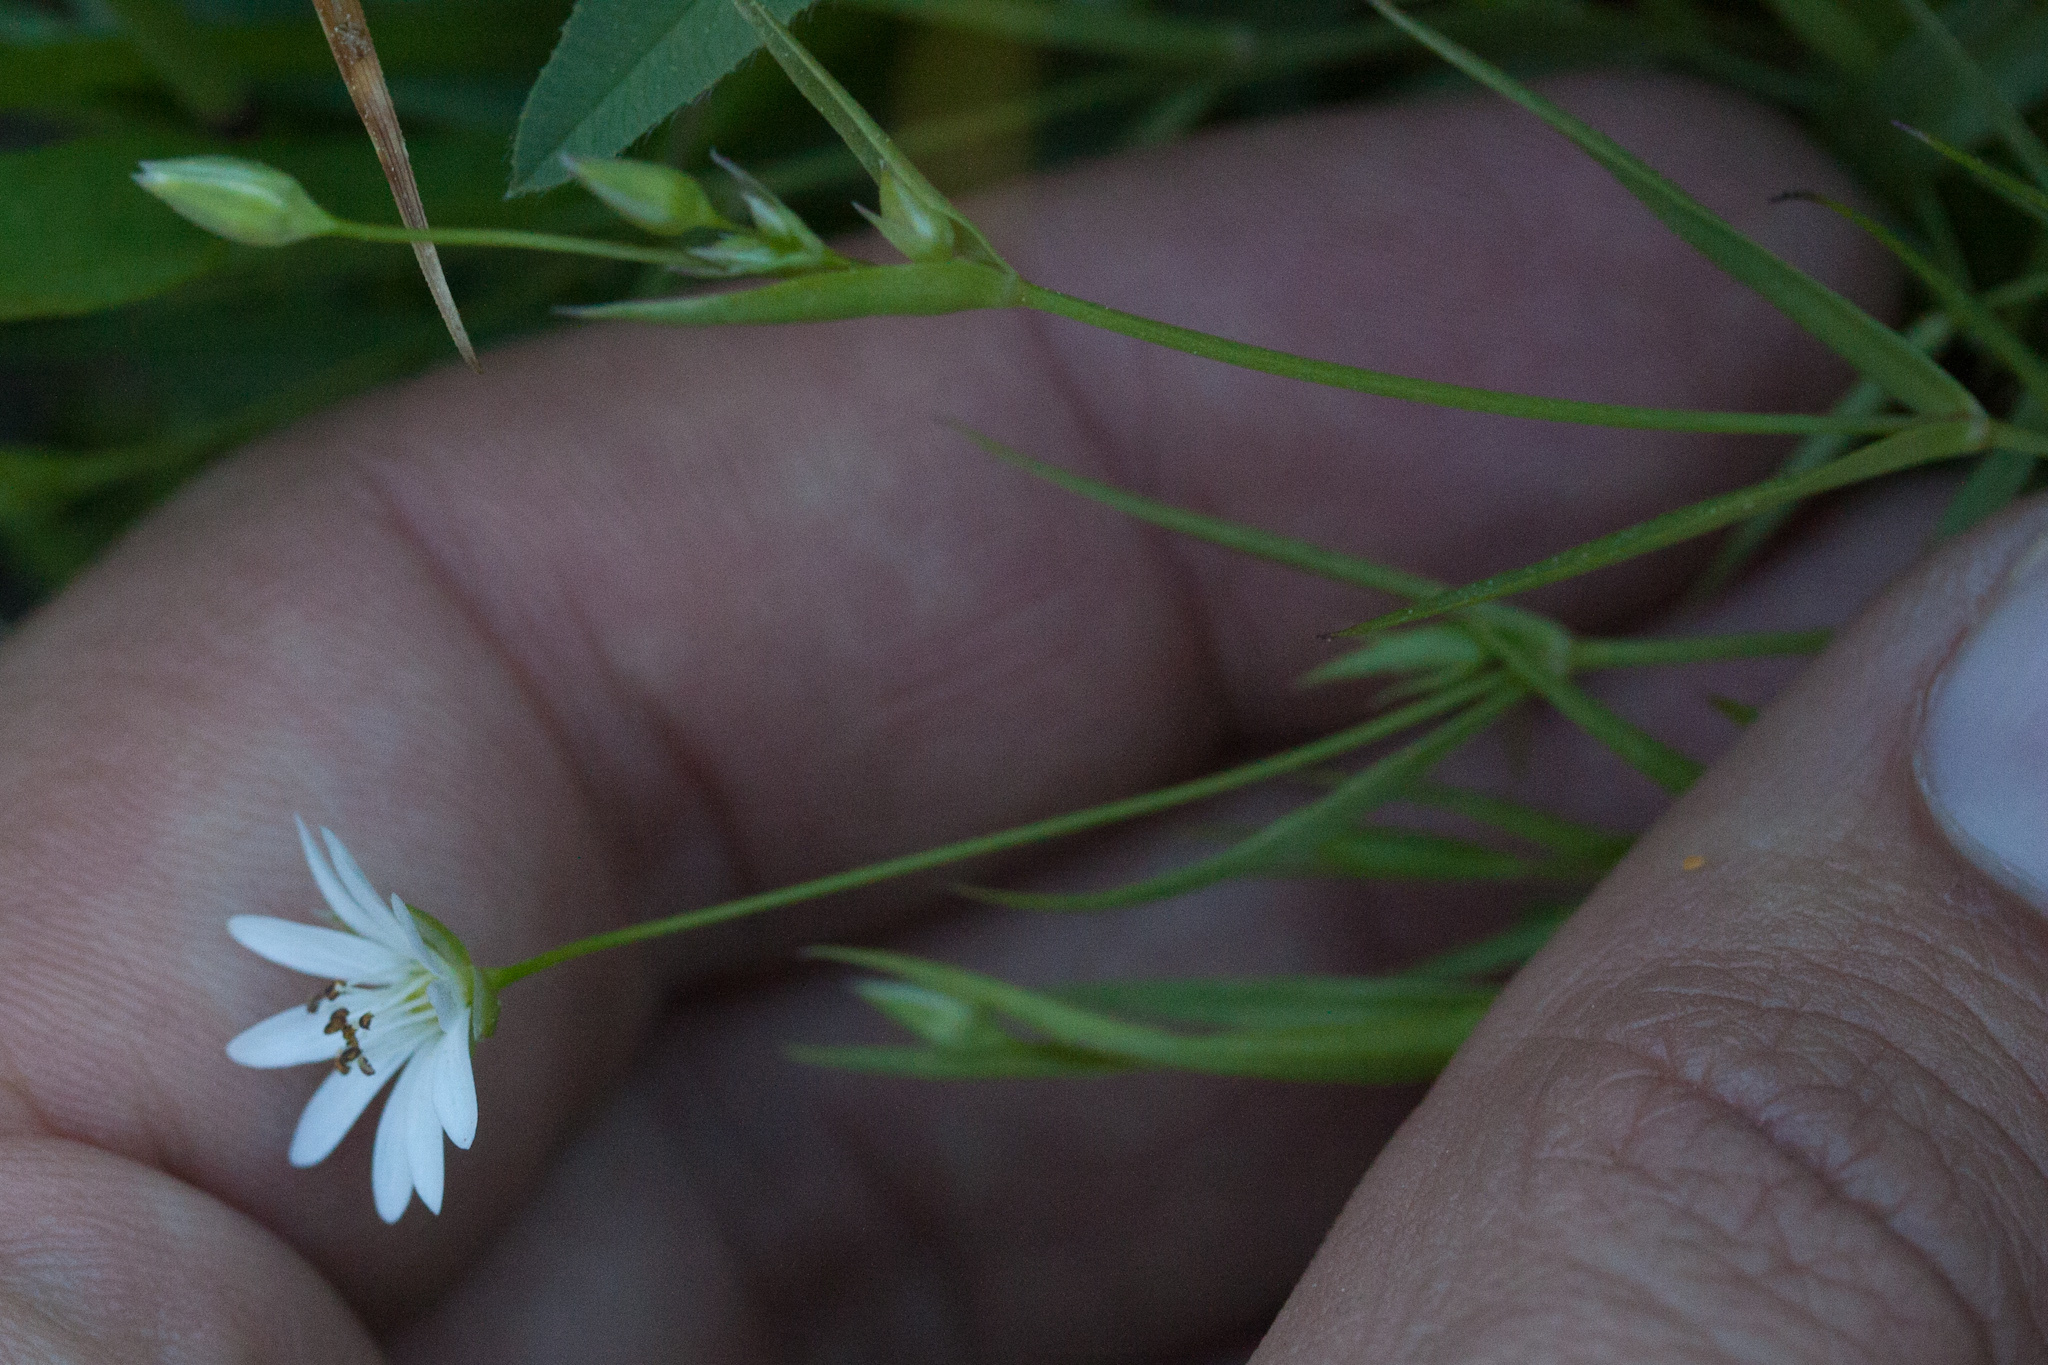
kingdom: Plantae
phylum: Tracheophyta
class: Magnoliopsida
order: Caryophyllales
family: Caryophyllaceae
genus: Stellaria
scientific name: Stellaria longipes
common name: Goldie's starwort
